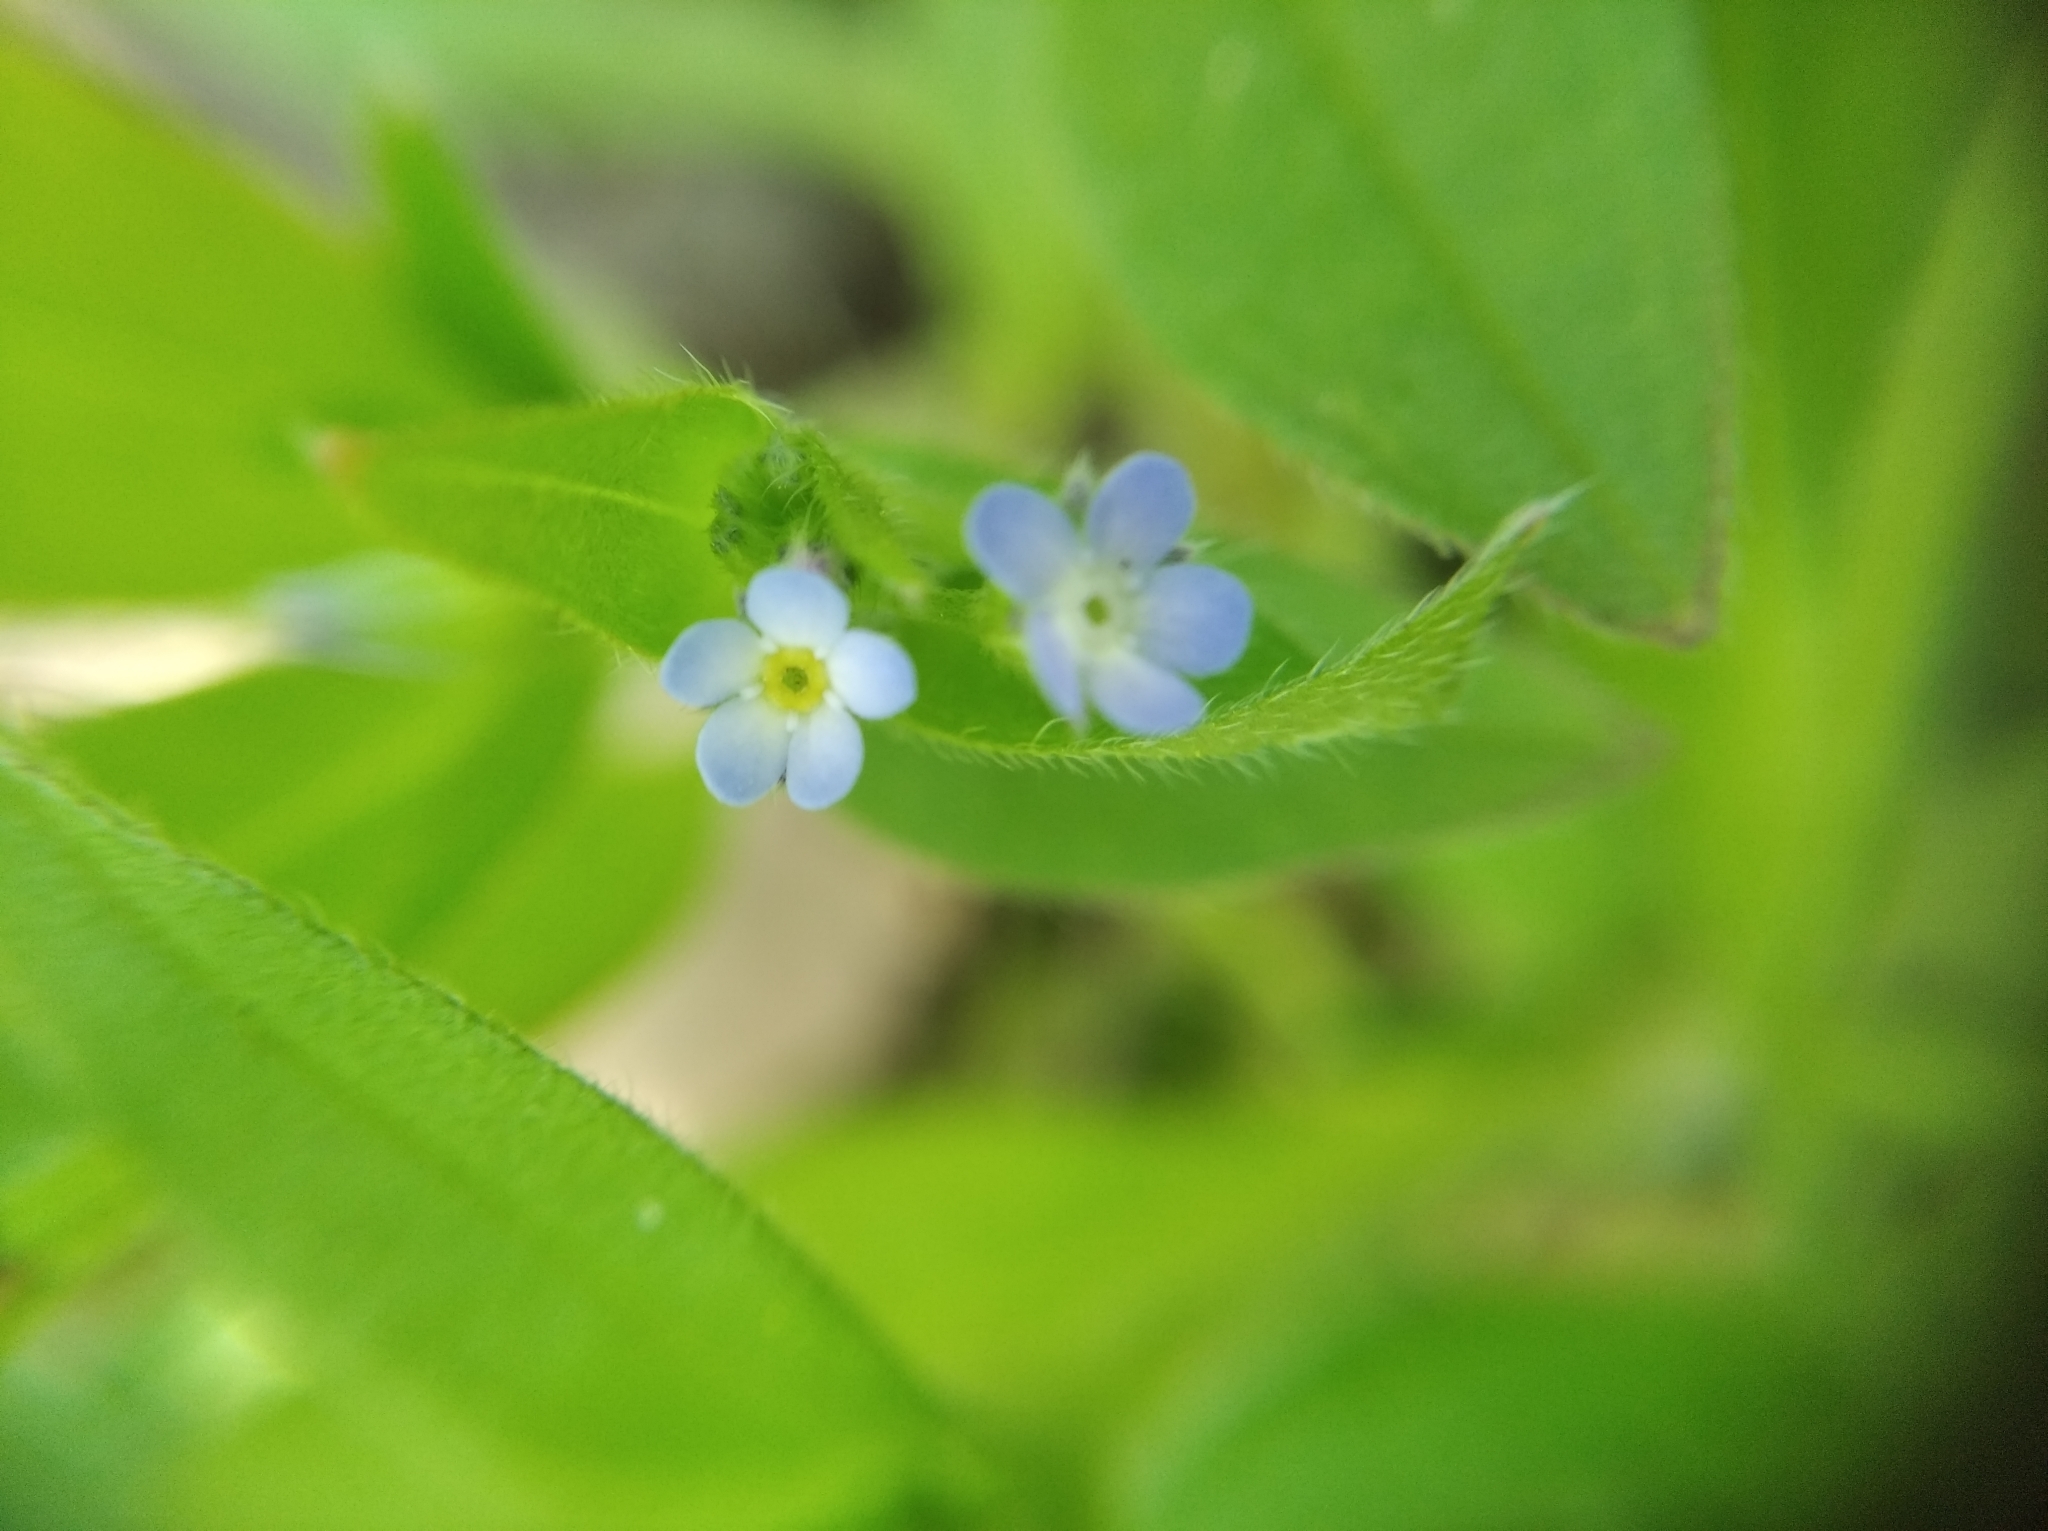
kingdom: Plantae
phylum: Tracheophyta
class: Magnoliopsida
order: Boraginales
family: Boraginaceae
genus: Myosotis
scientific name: Myosotis sparsiflora
